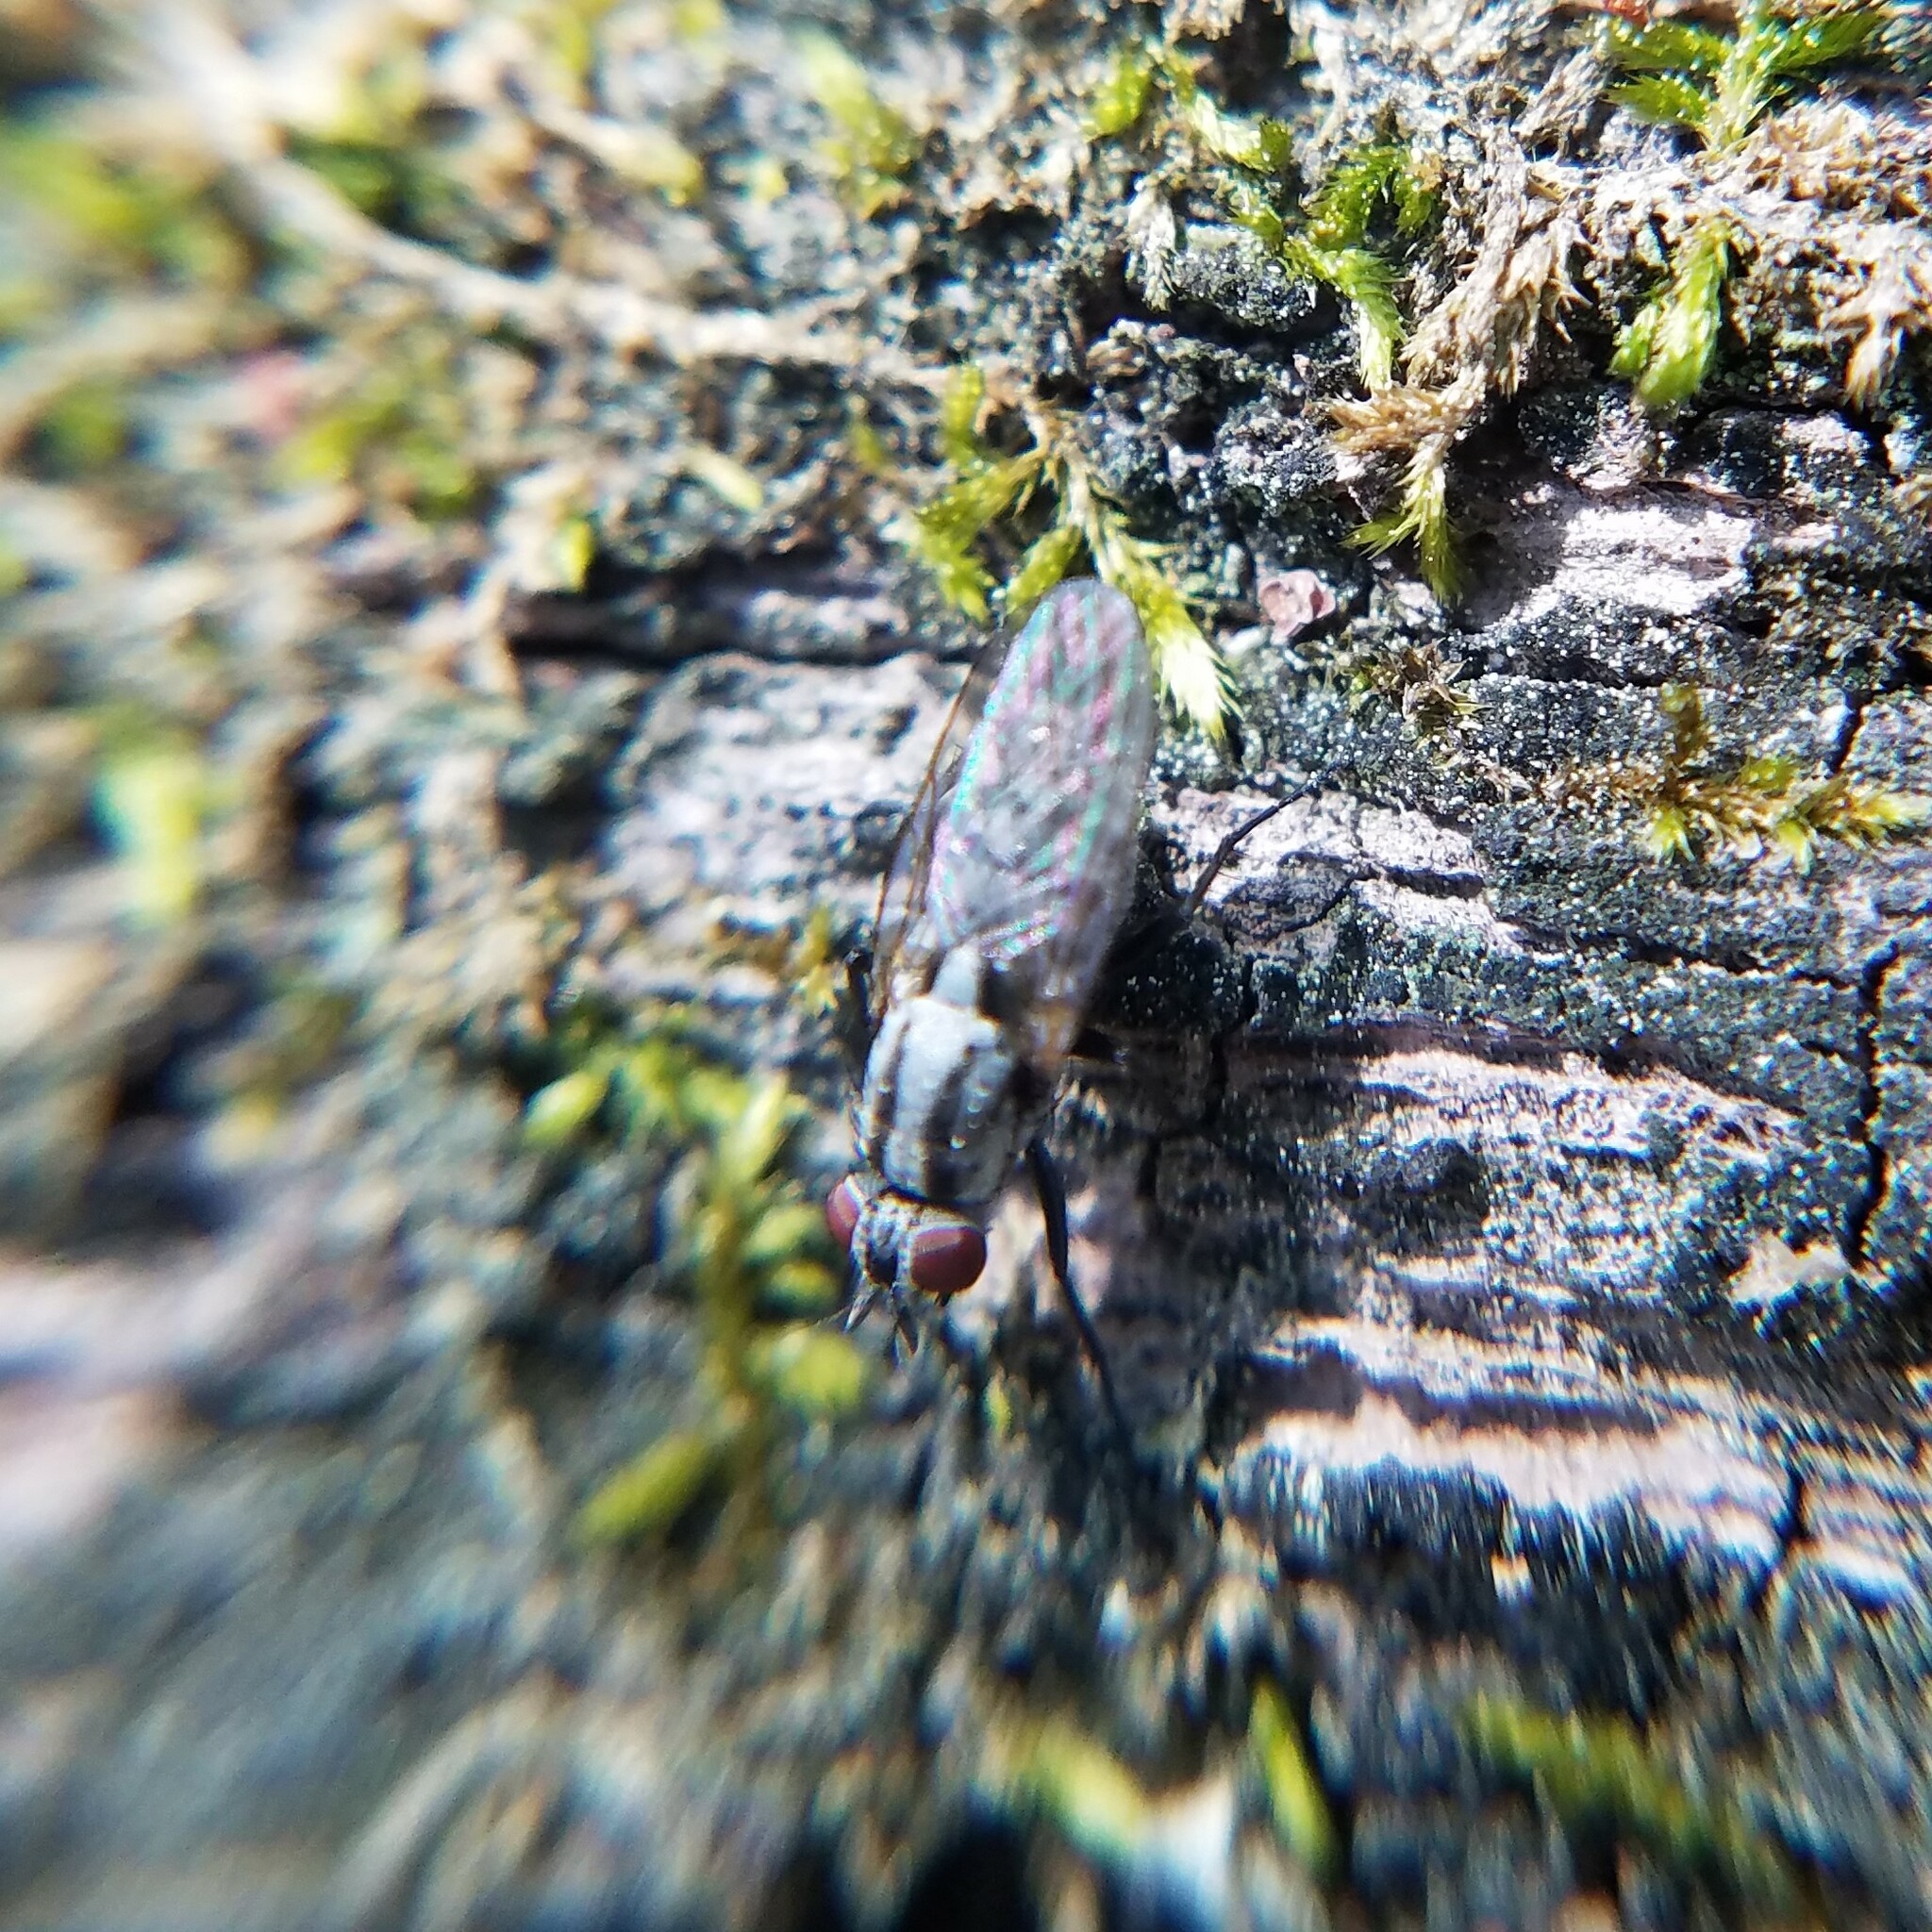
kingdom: Animalia
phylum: Arthropoda
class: Insecta
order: Diptera
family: Anthomyiidae
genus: Anthomyia
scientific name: Anthomyia oculifera
